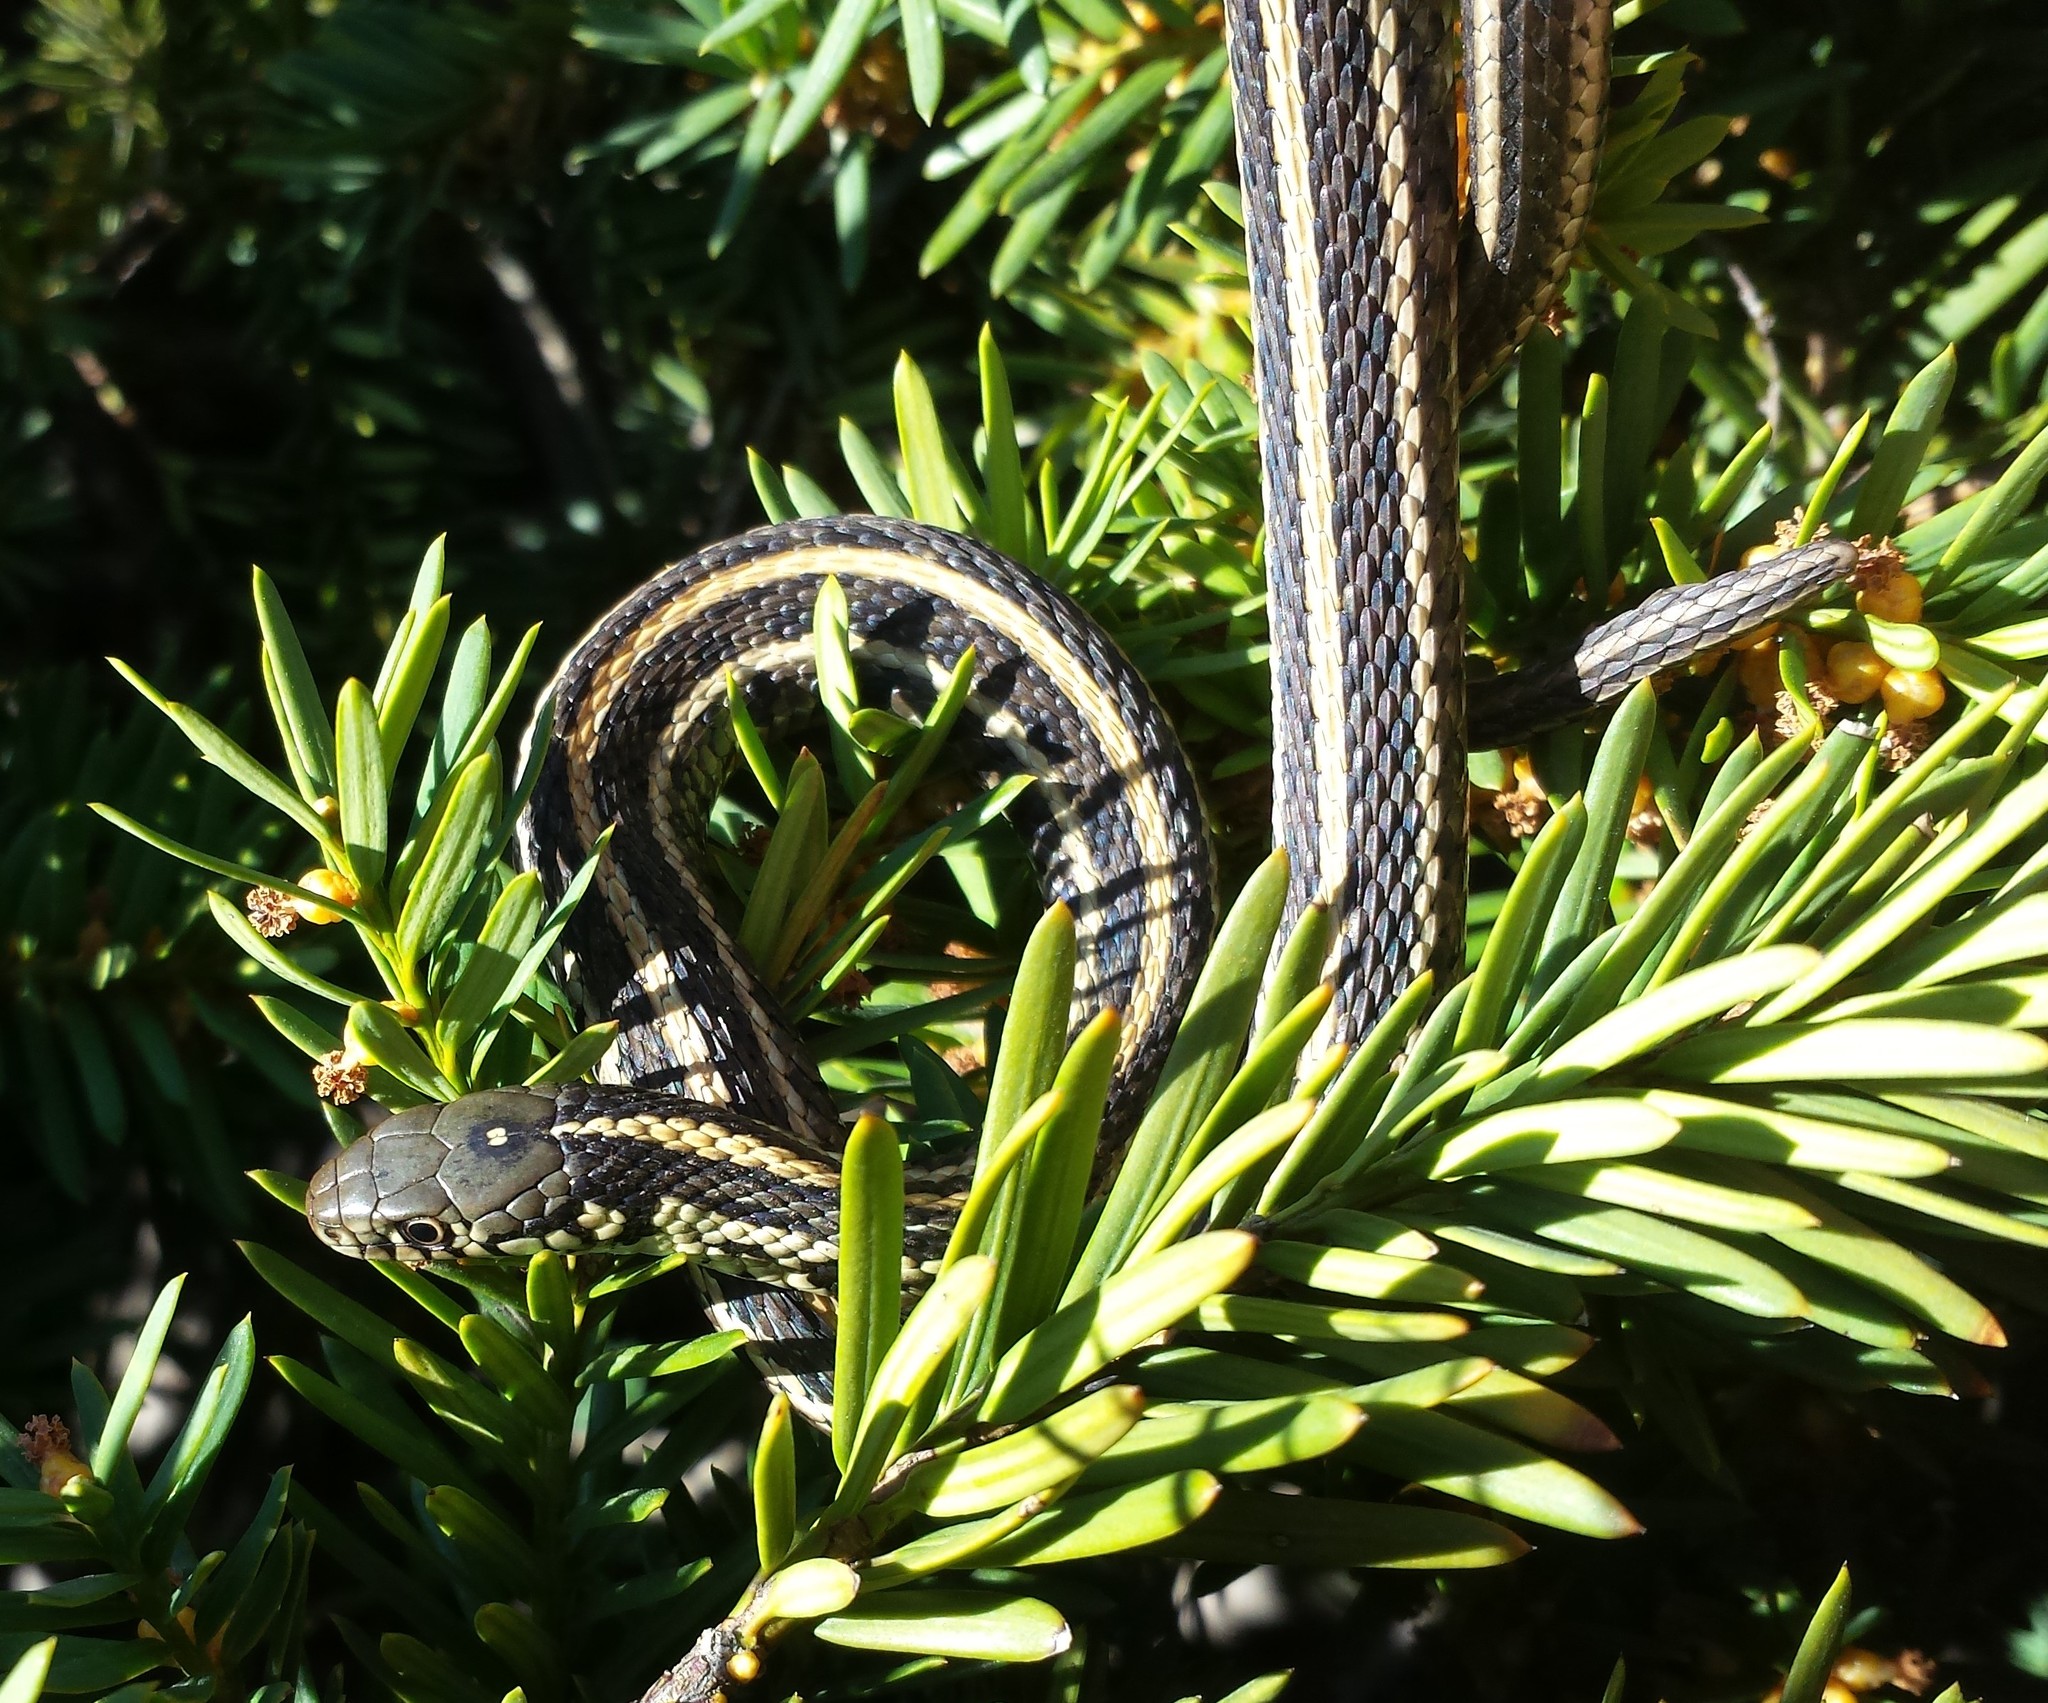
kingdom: Animalia
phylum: Chordata
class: Squamata
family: Colubridae
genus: Thamnophis
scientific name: Thamnophis radix
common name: Plains garter snake
